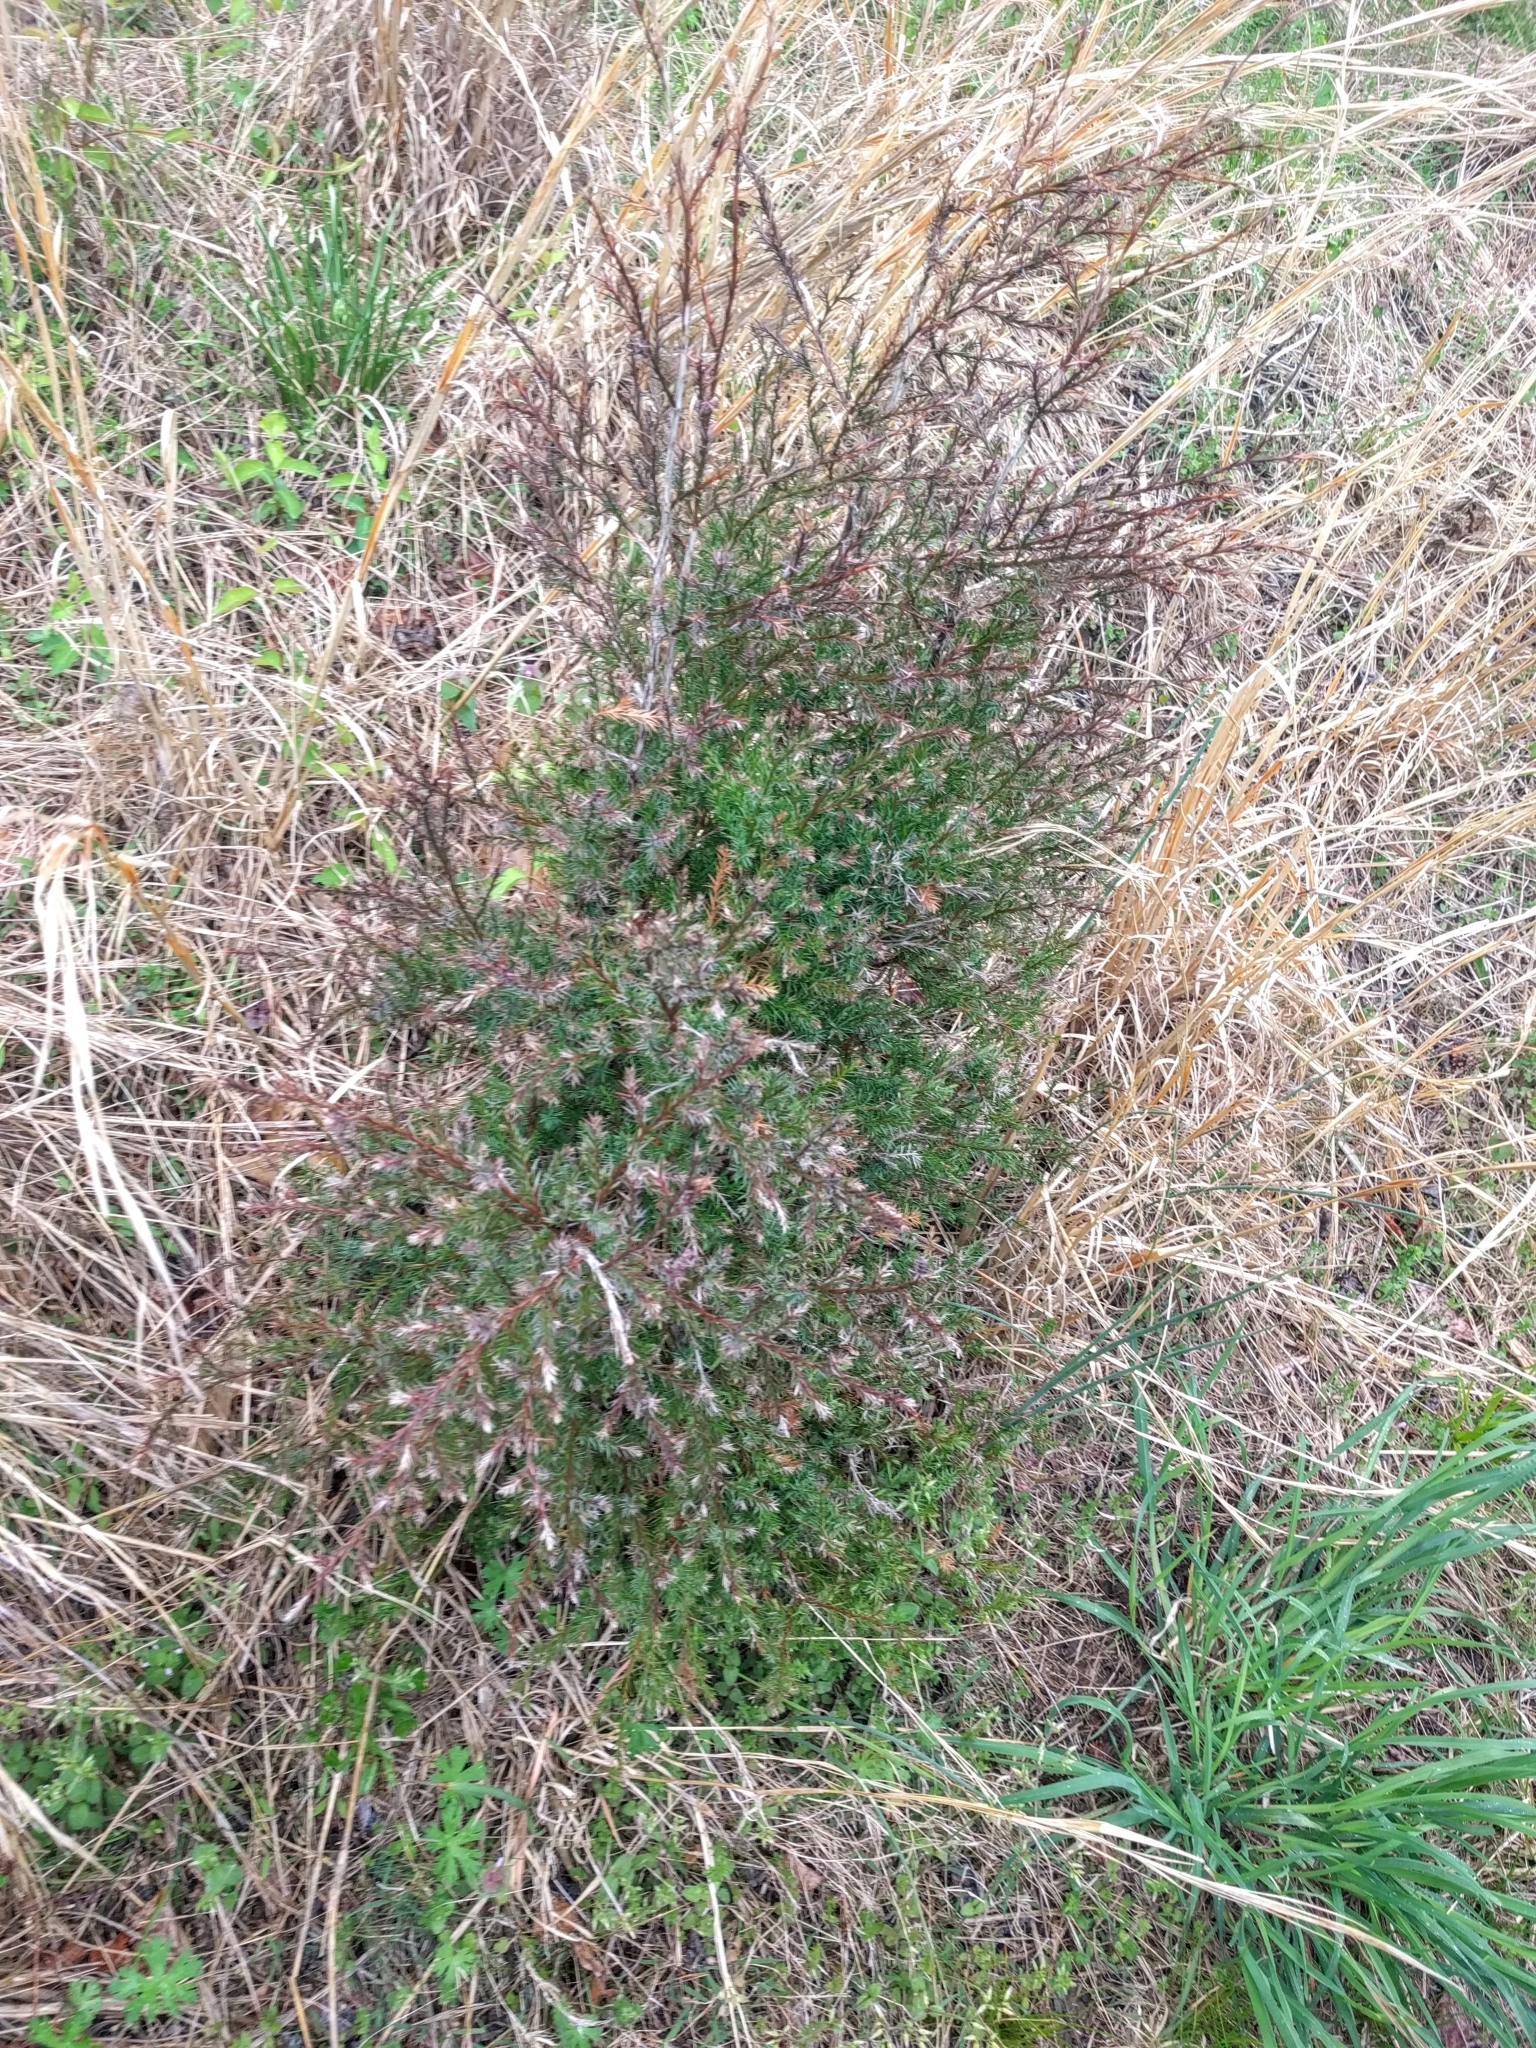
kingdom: Plantae
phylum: Tracheophyta
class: Pinopsida
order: Pinales
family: Cupressaceae
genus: Juniperus
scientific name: Juniperus virginiana
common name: Red juniper
